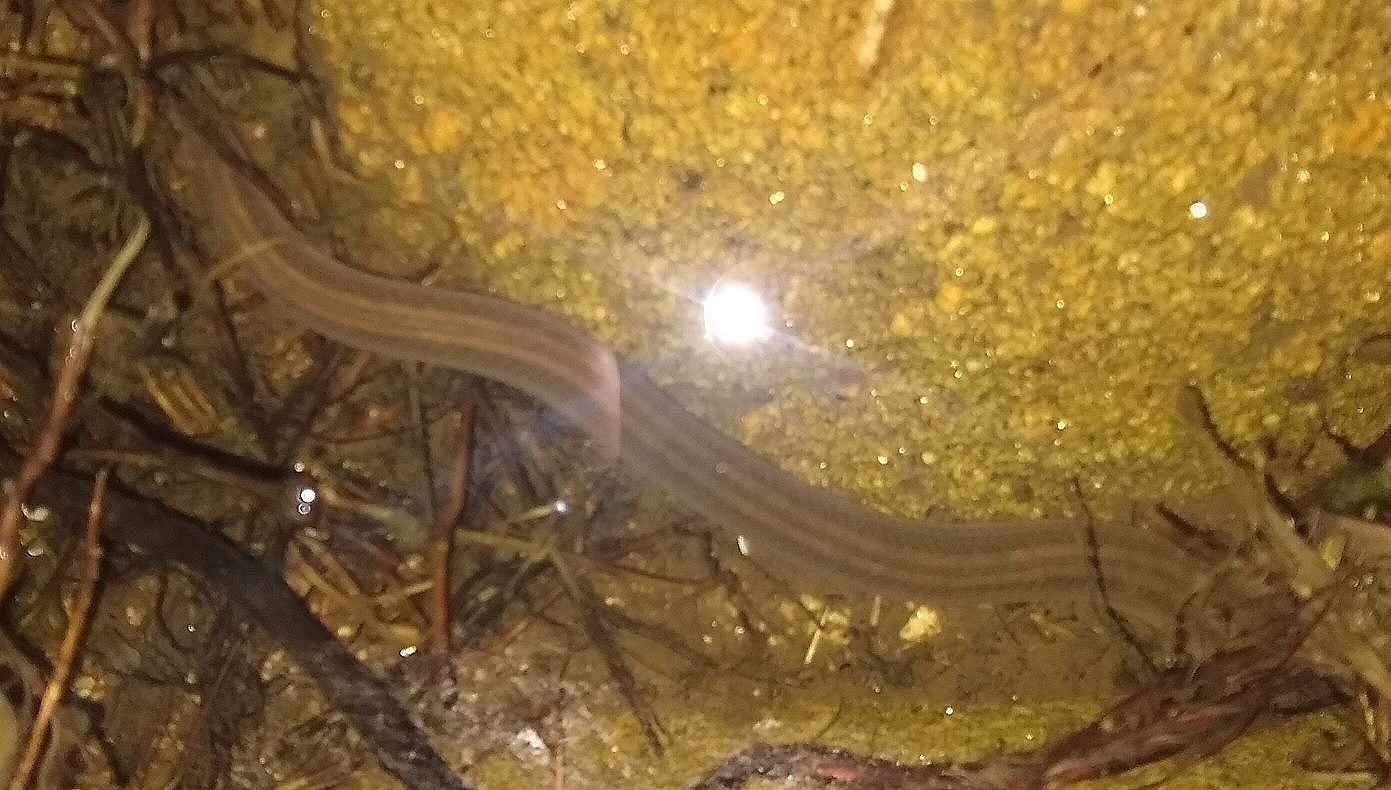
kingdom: Animalia
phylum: Chordata
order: Synbranchiformes
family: Synbranchidae
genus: Synbranchus
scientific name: Synbranchus marmoratus
